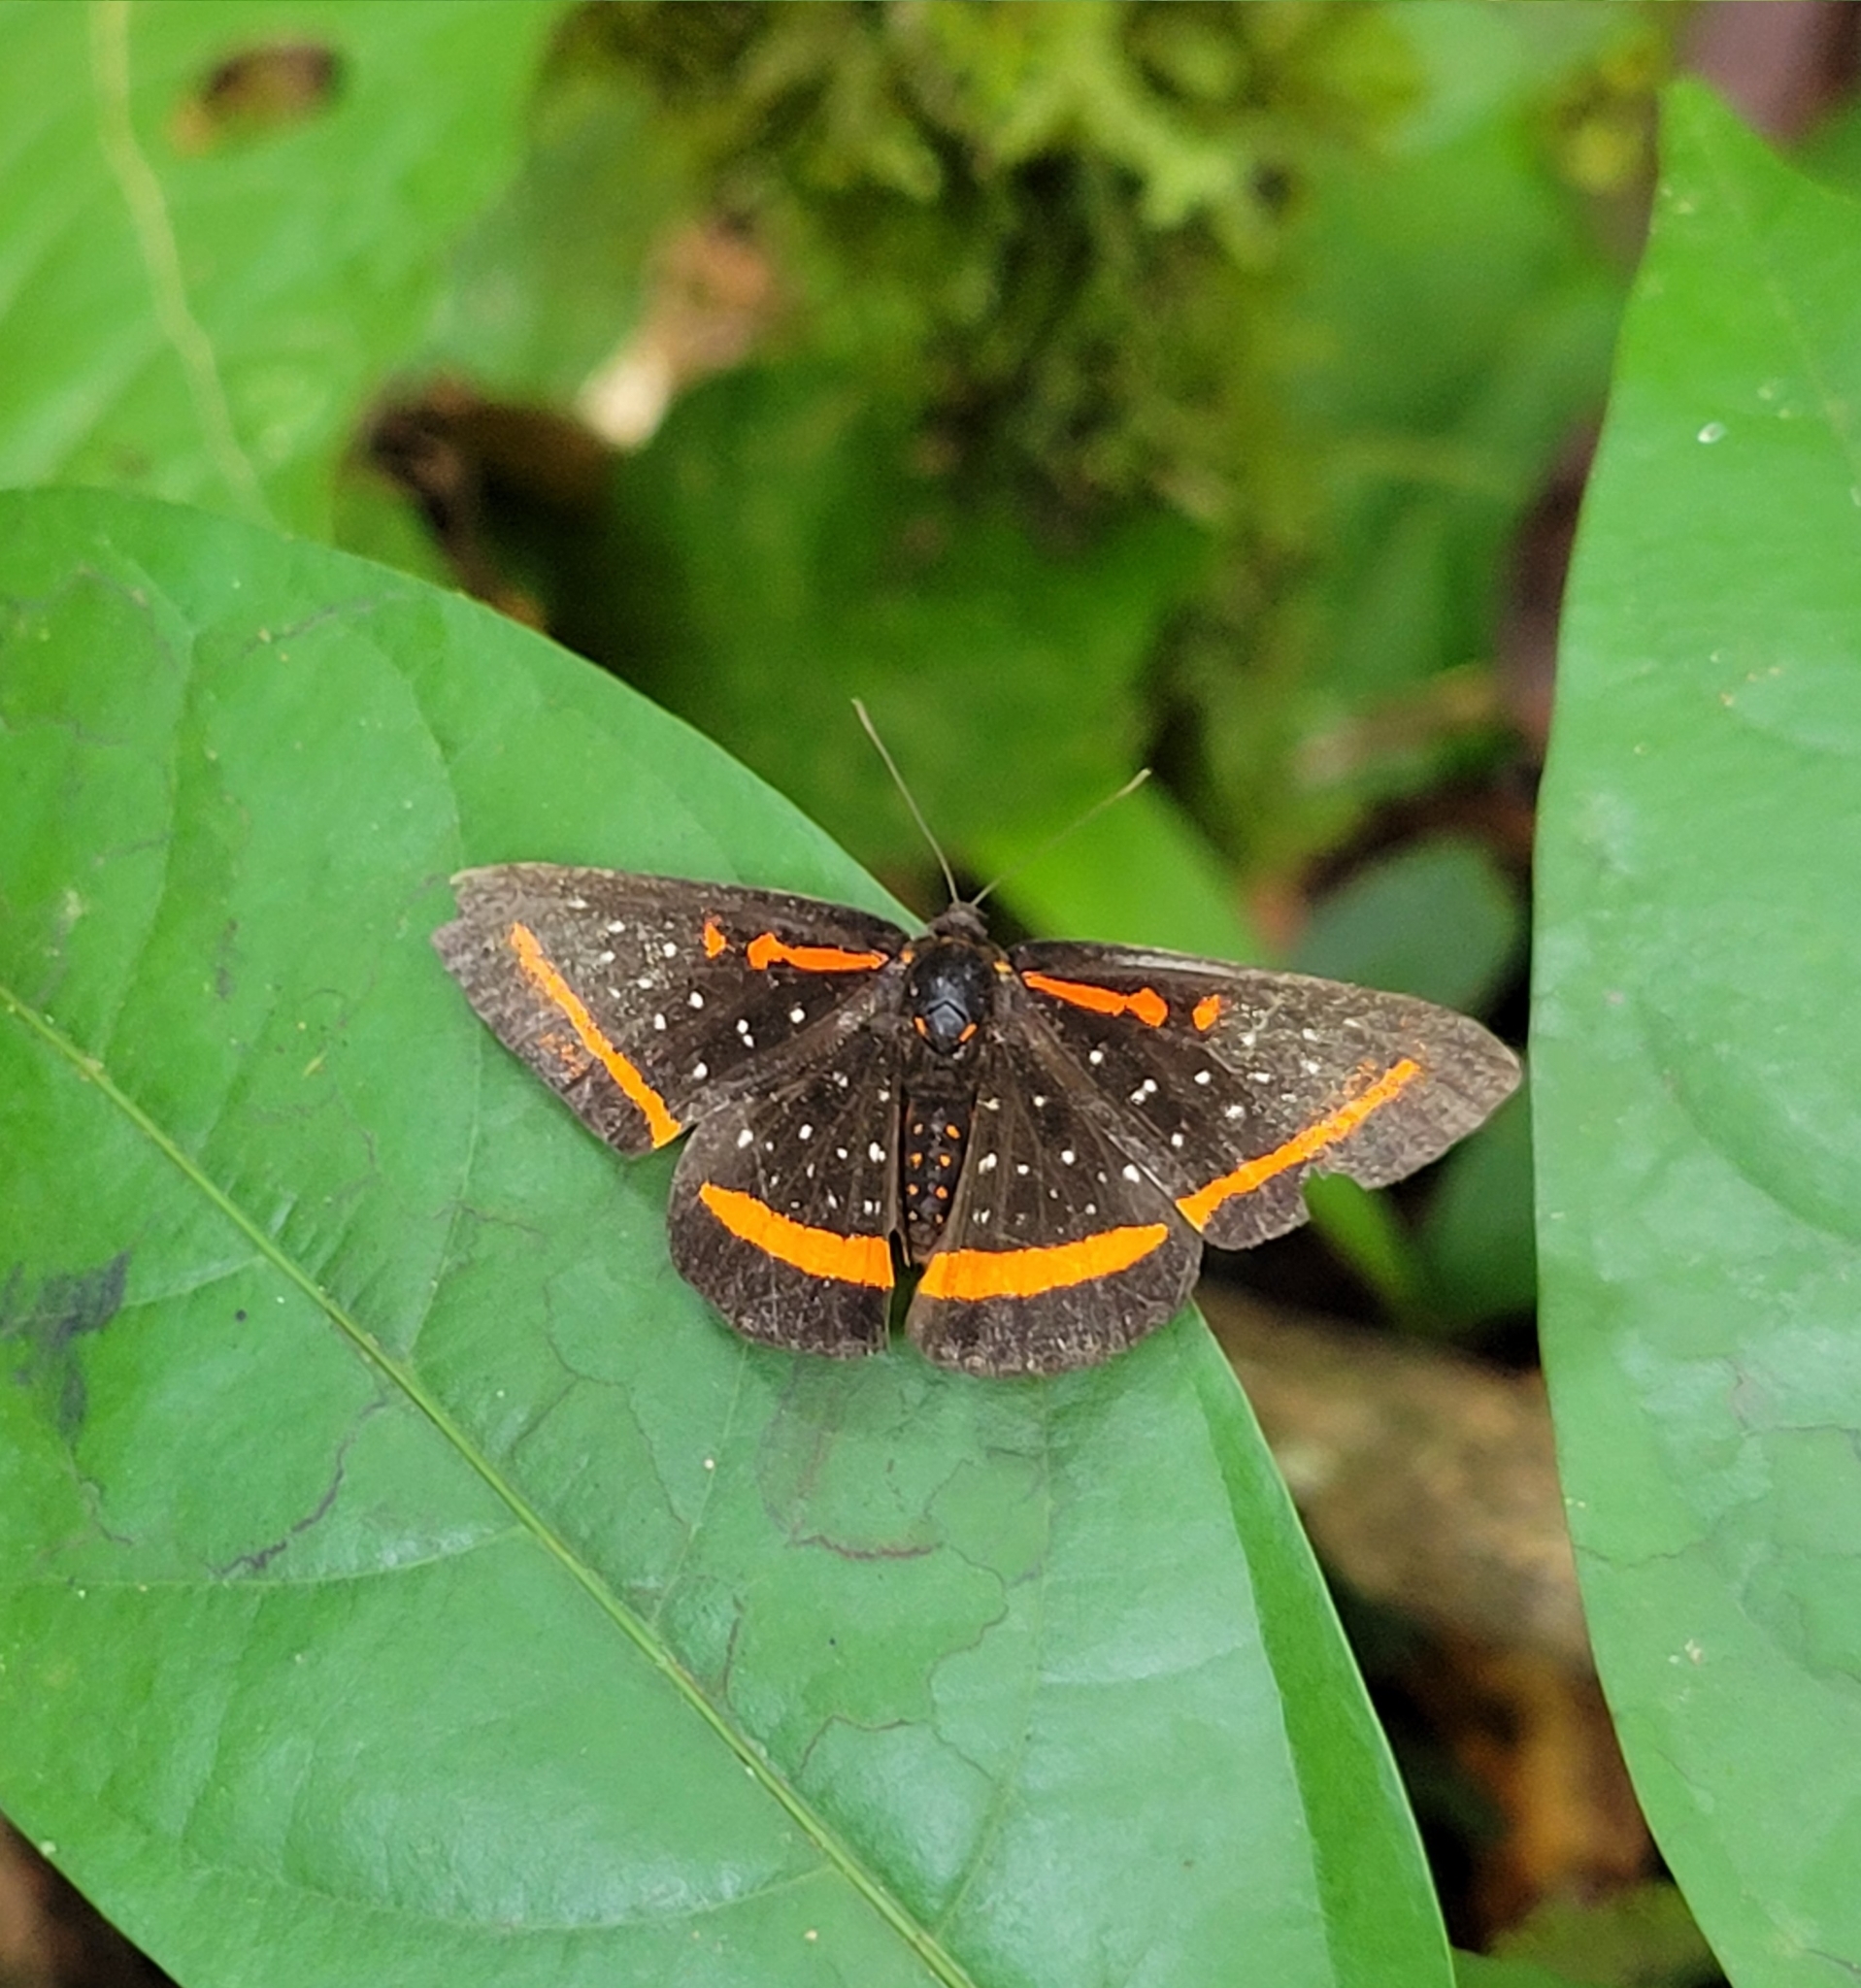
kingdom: Animalia
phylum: Arthropoda
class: Insecta
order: Lepidoptera
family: Riodinidae
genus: Amarynthis
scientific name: Amarynthis meneria
